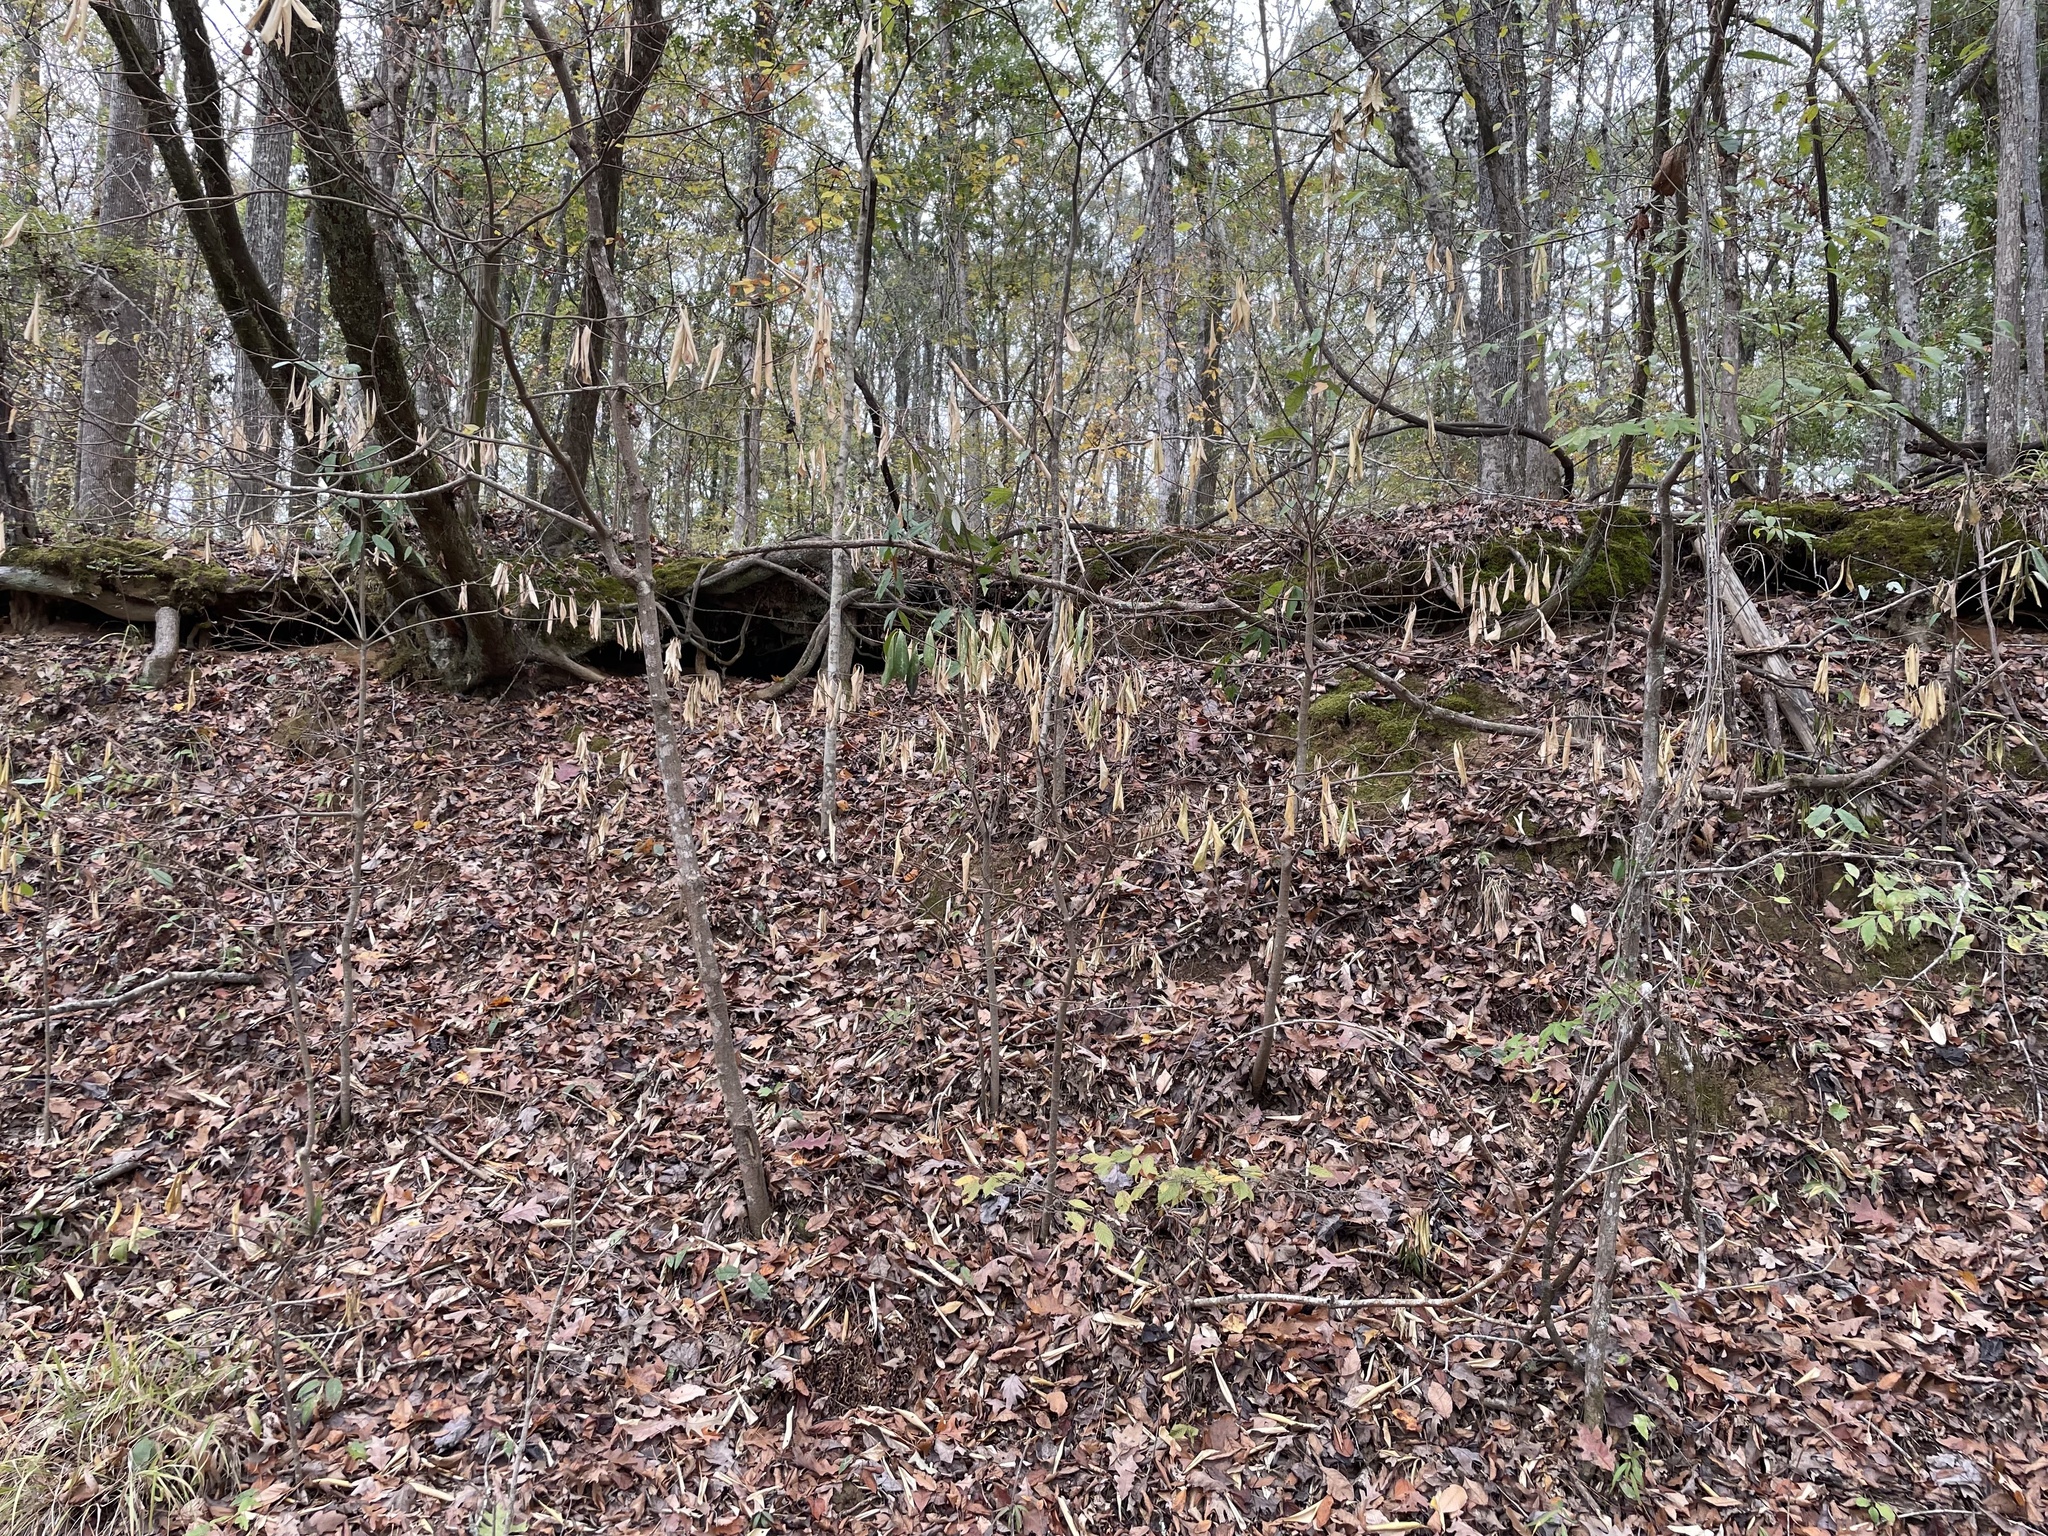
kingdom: Plantae
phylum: Tracheophyta
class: Magnoliopsida
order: Ericales
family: Symplocaceae
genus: Symplocos
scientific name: Symplocos tinctoria
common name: Horse-sugar
